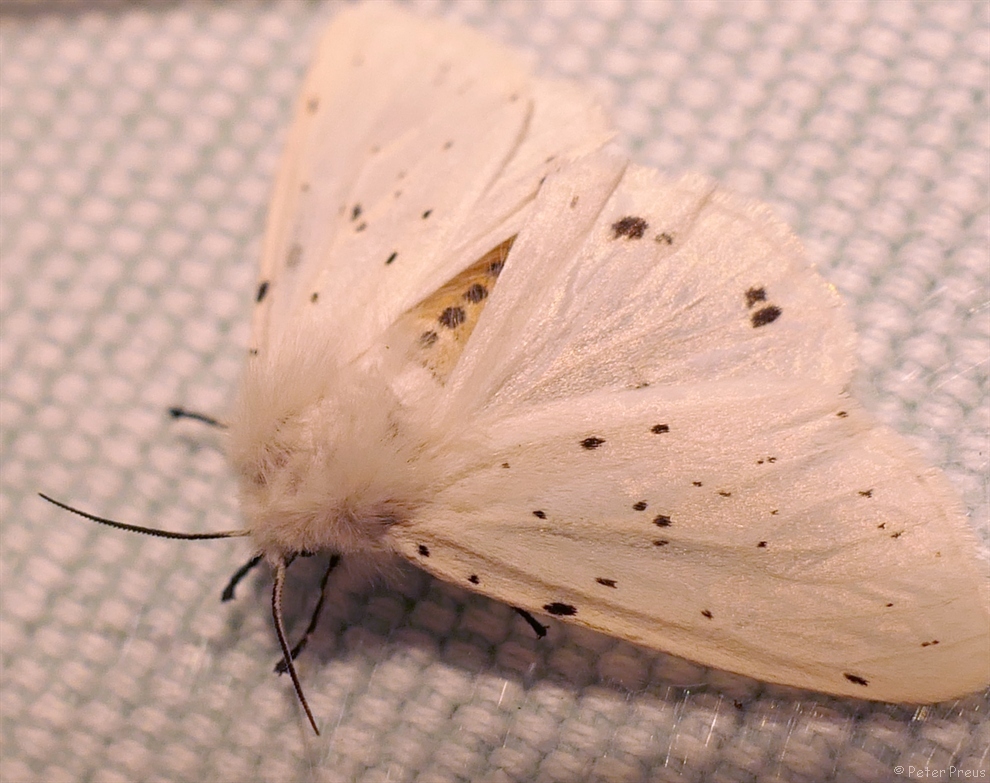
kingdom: Animalia
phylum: Arthropoda
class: Insecta
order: Lepidoptera
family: Erebidae
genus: Spilosoma
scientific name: Spilosoma lubricipeda
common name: White ermine
